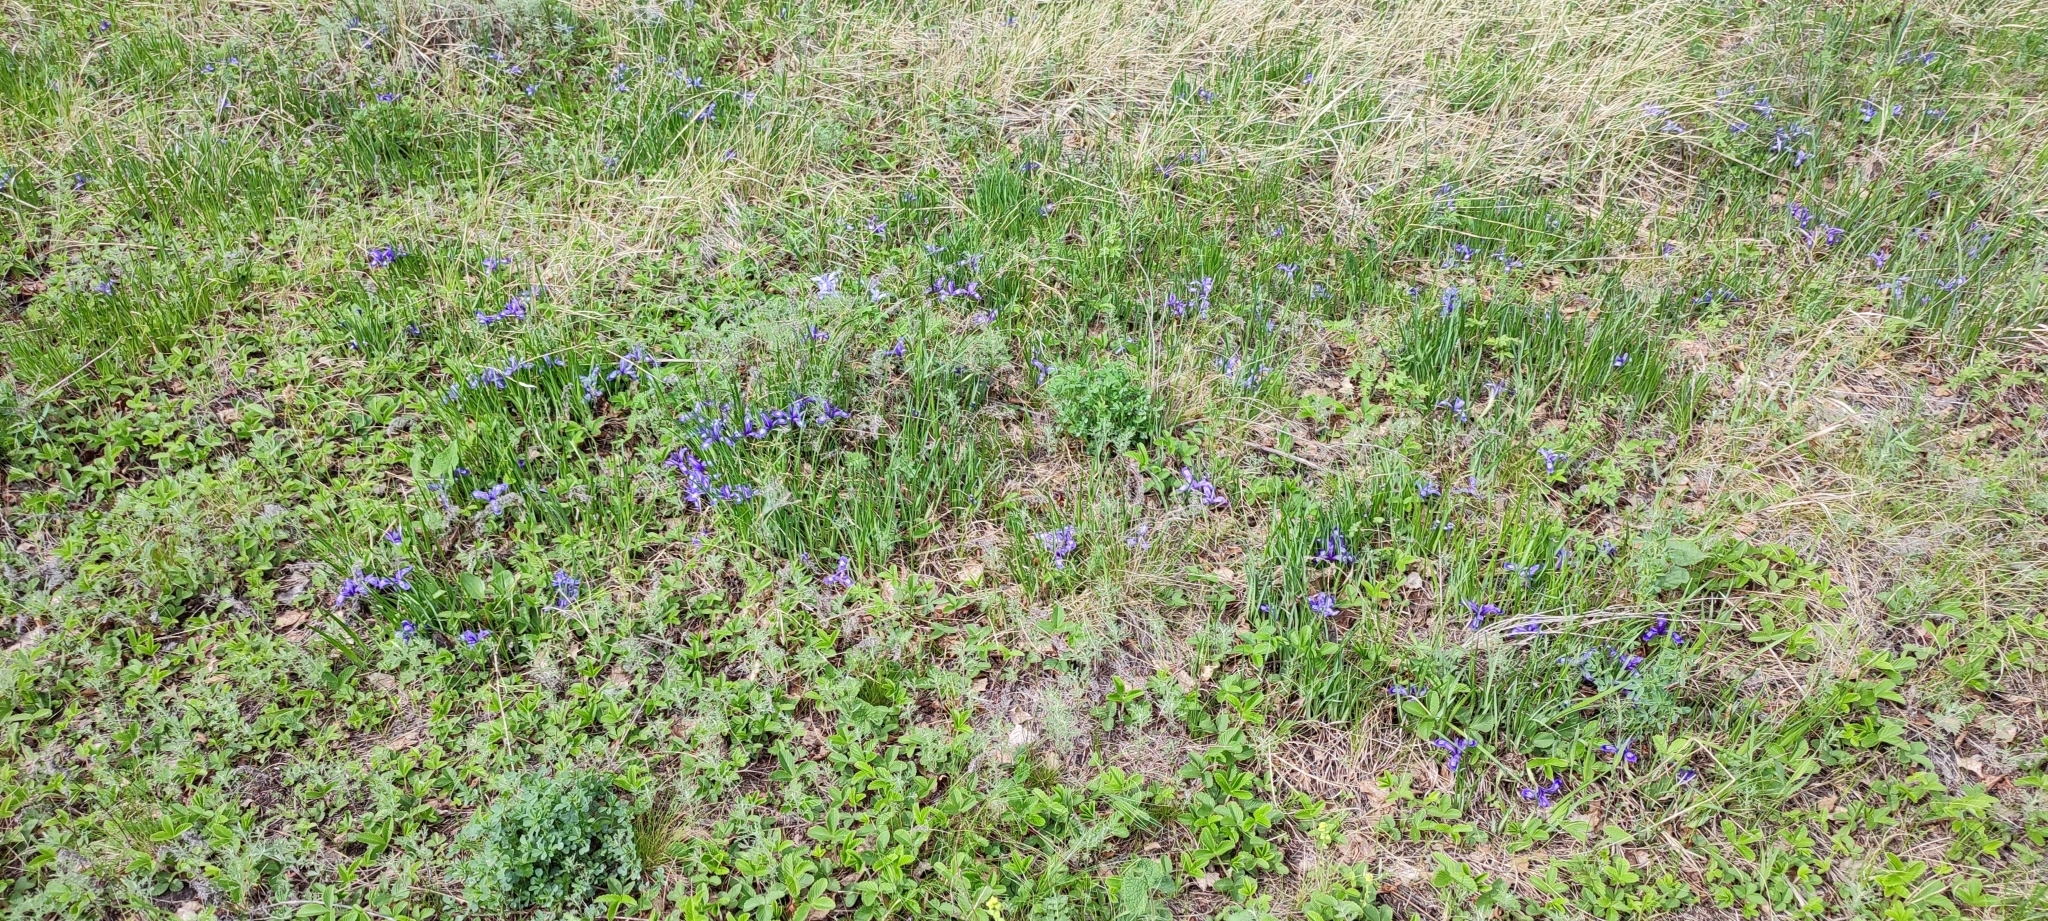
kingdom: Plantae
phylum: Tracheophyta
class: Liliopsida
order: Asparagales
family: Iridaceae
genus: Iris
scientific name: Iris ruthenica
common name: Purple-bract iris
